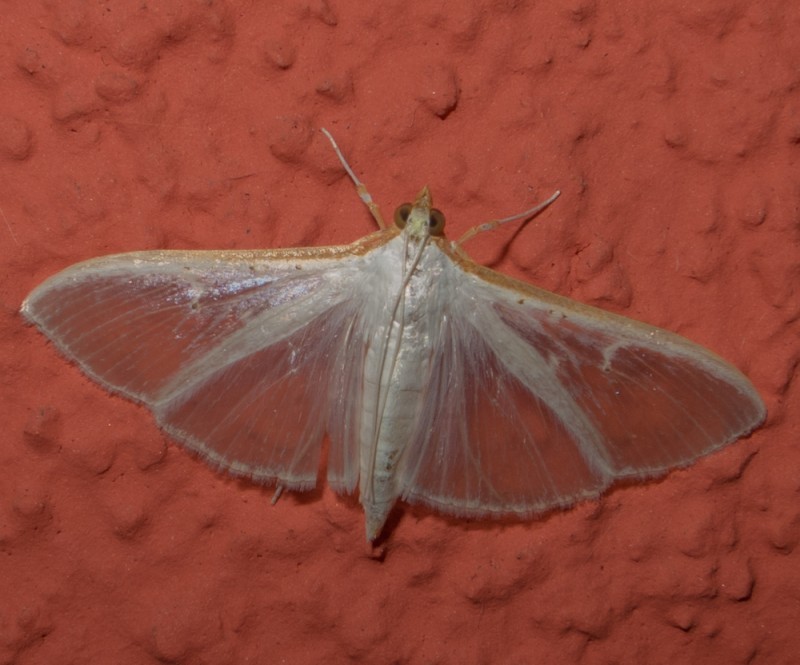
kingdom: Animalia
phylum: Arthropoda
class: Insecta
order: Lepidoptera
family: Crambidae
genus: Palpita
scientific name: Palpita vitrealis
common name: Olive-tree pearl
